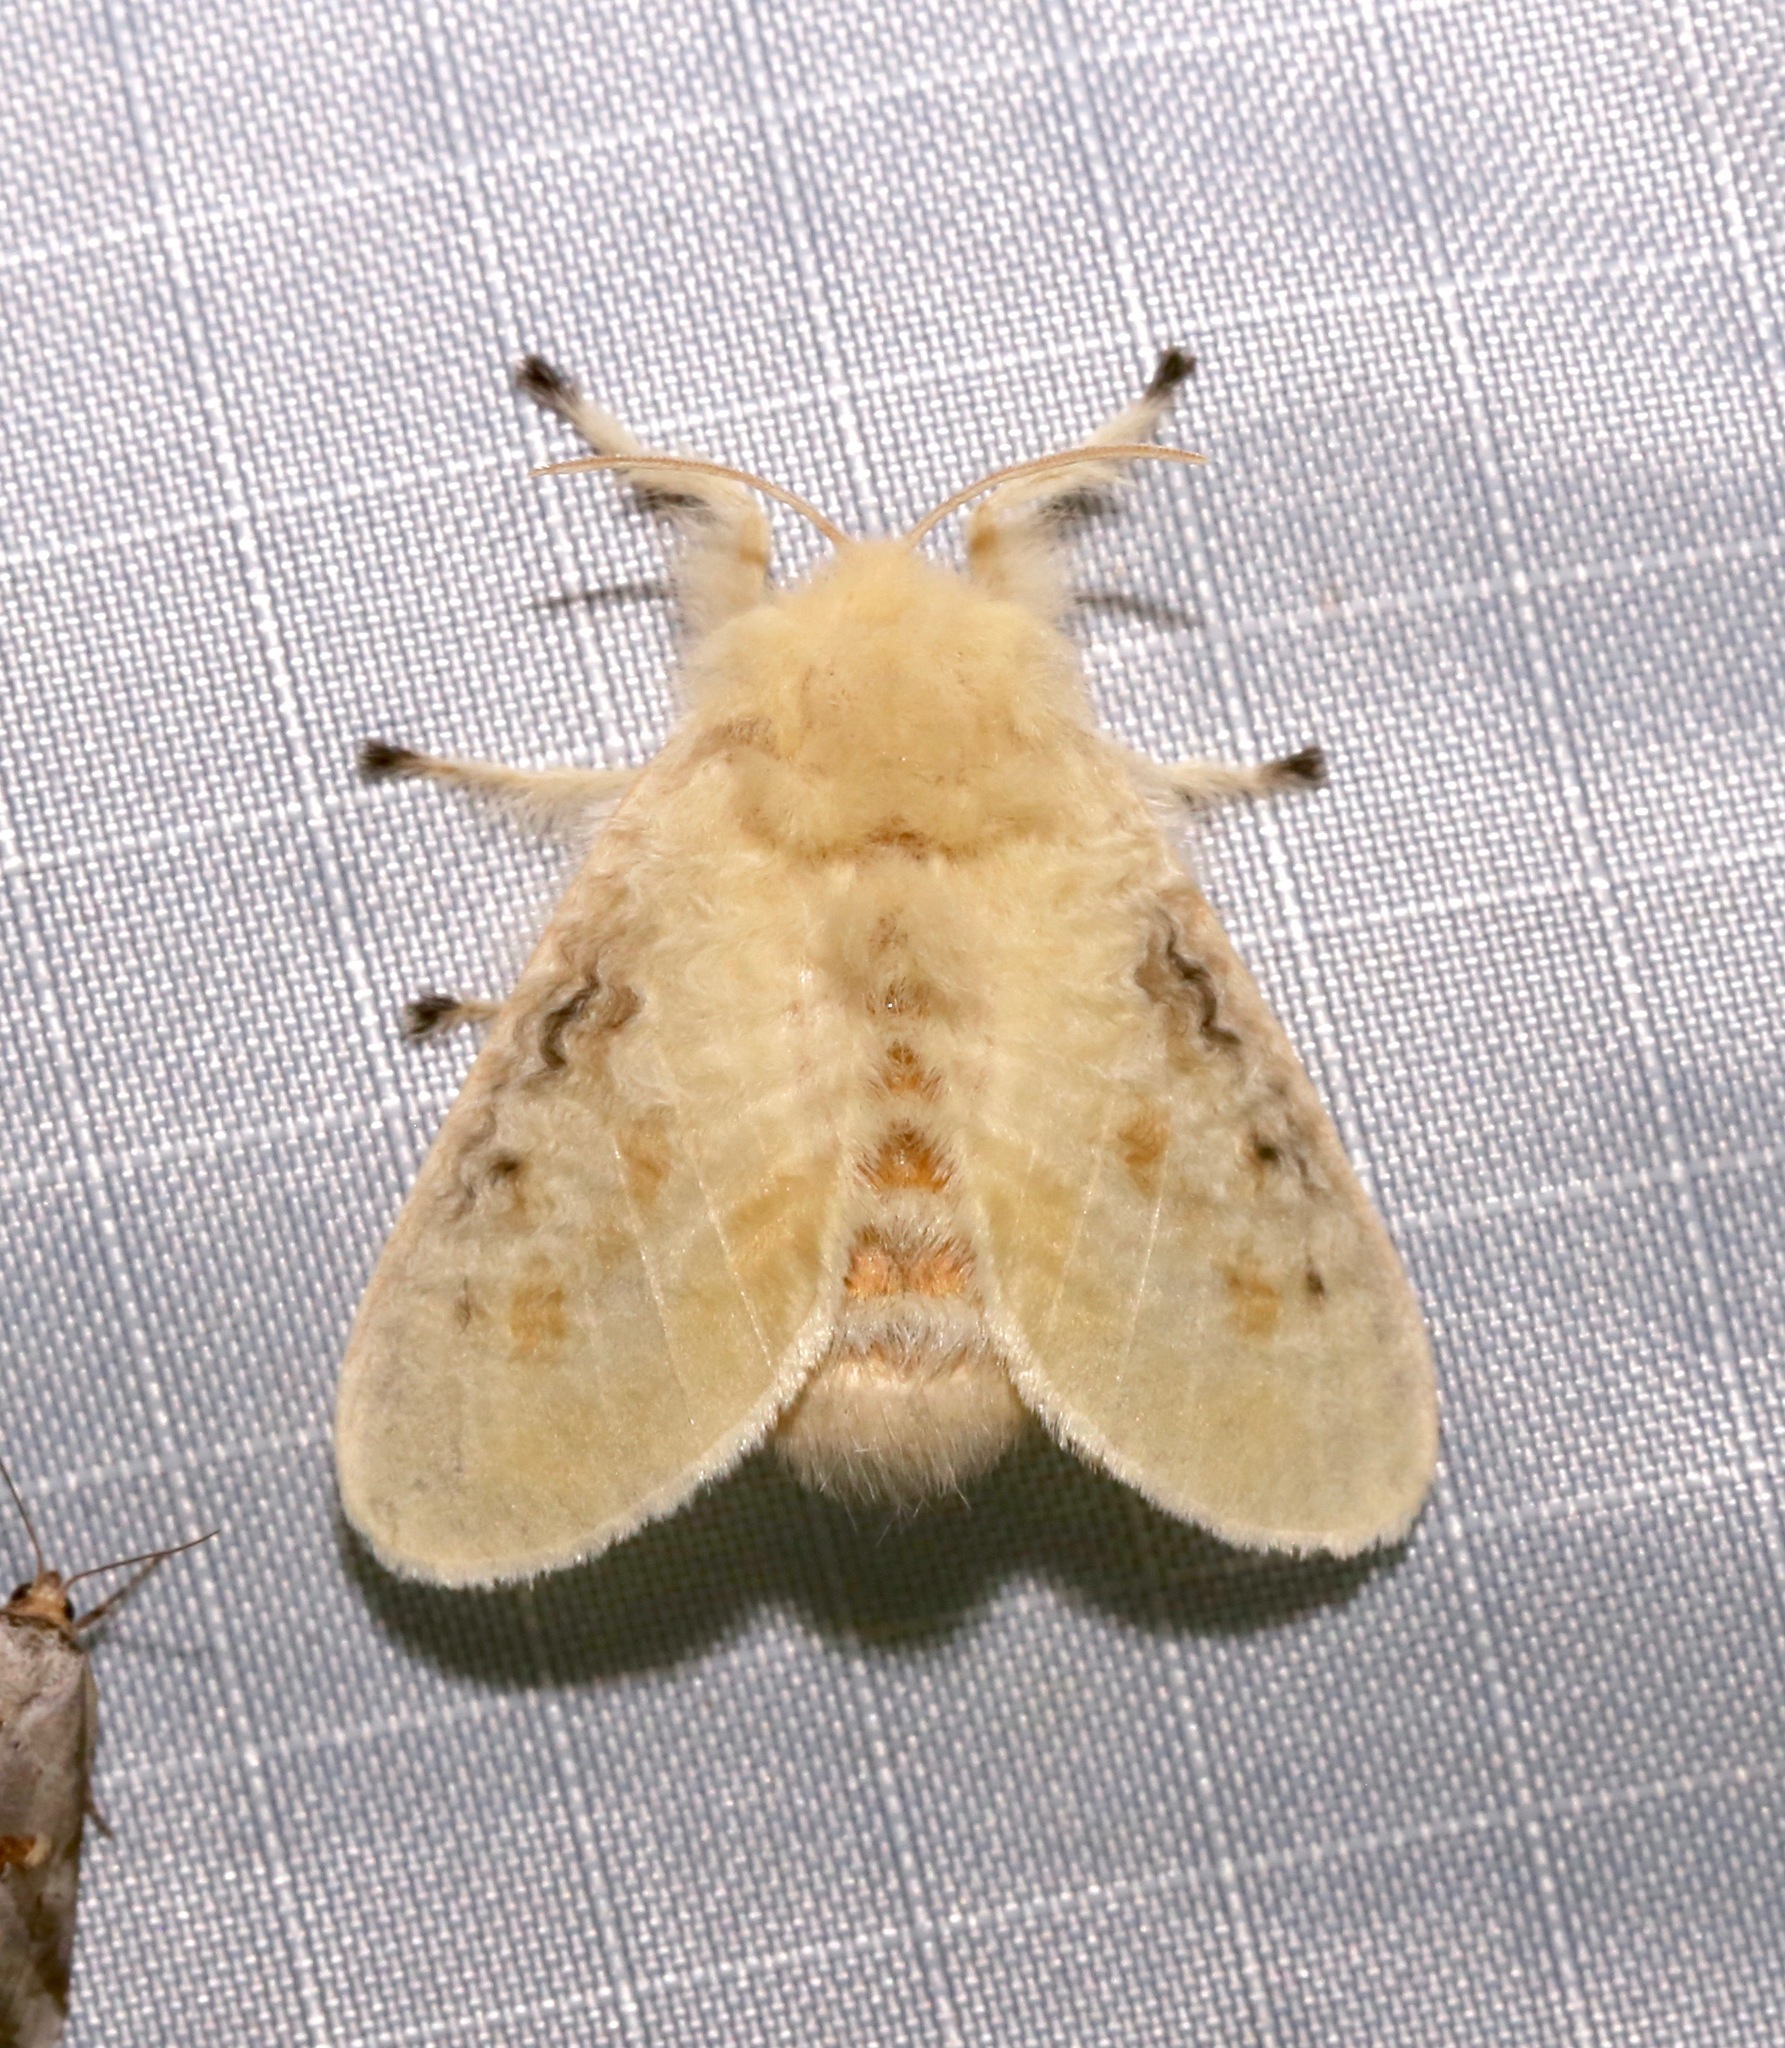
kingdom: Animalia
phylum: Arthropoda
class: Insecta
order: Lepidoptera
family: Megalopygidae
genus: Megalopyge
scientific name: Megalopyge crispata
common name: Black-waved flannel moth
